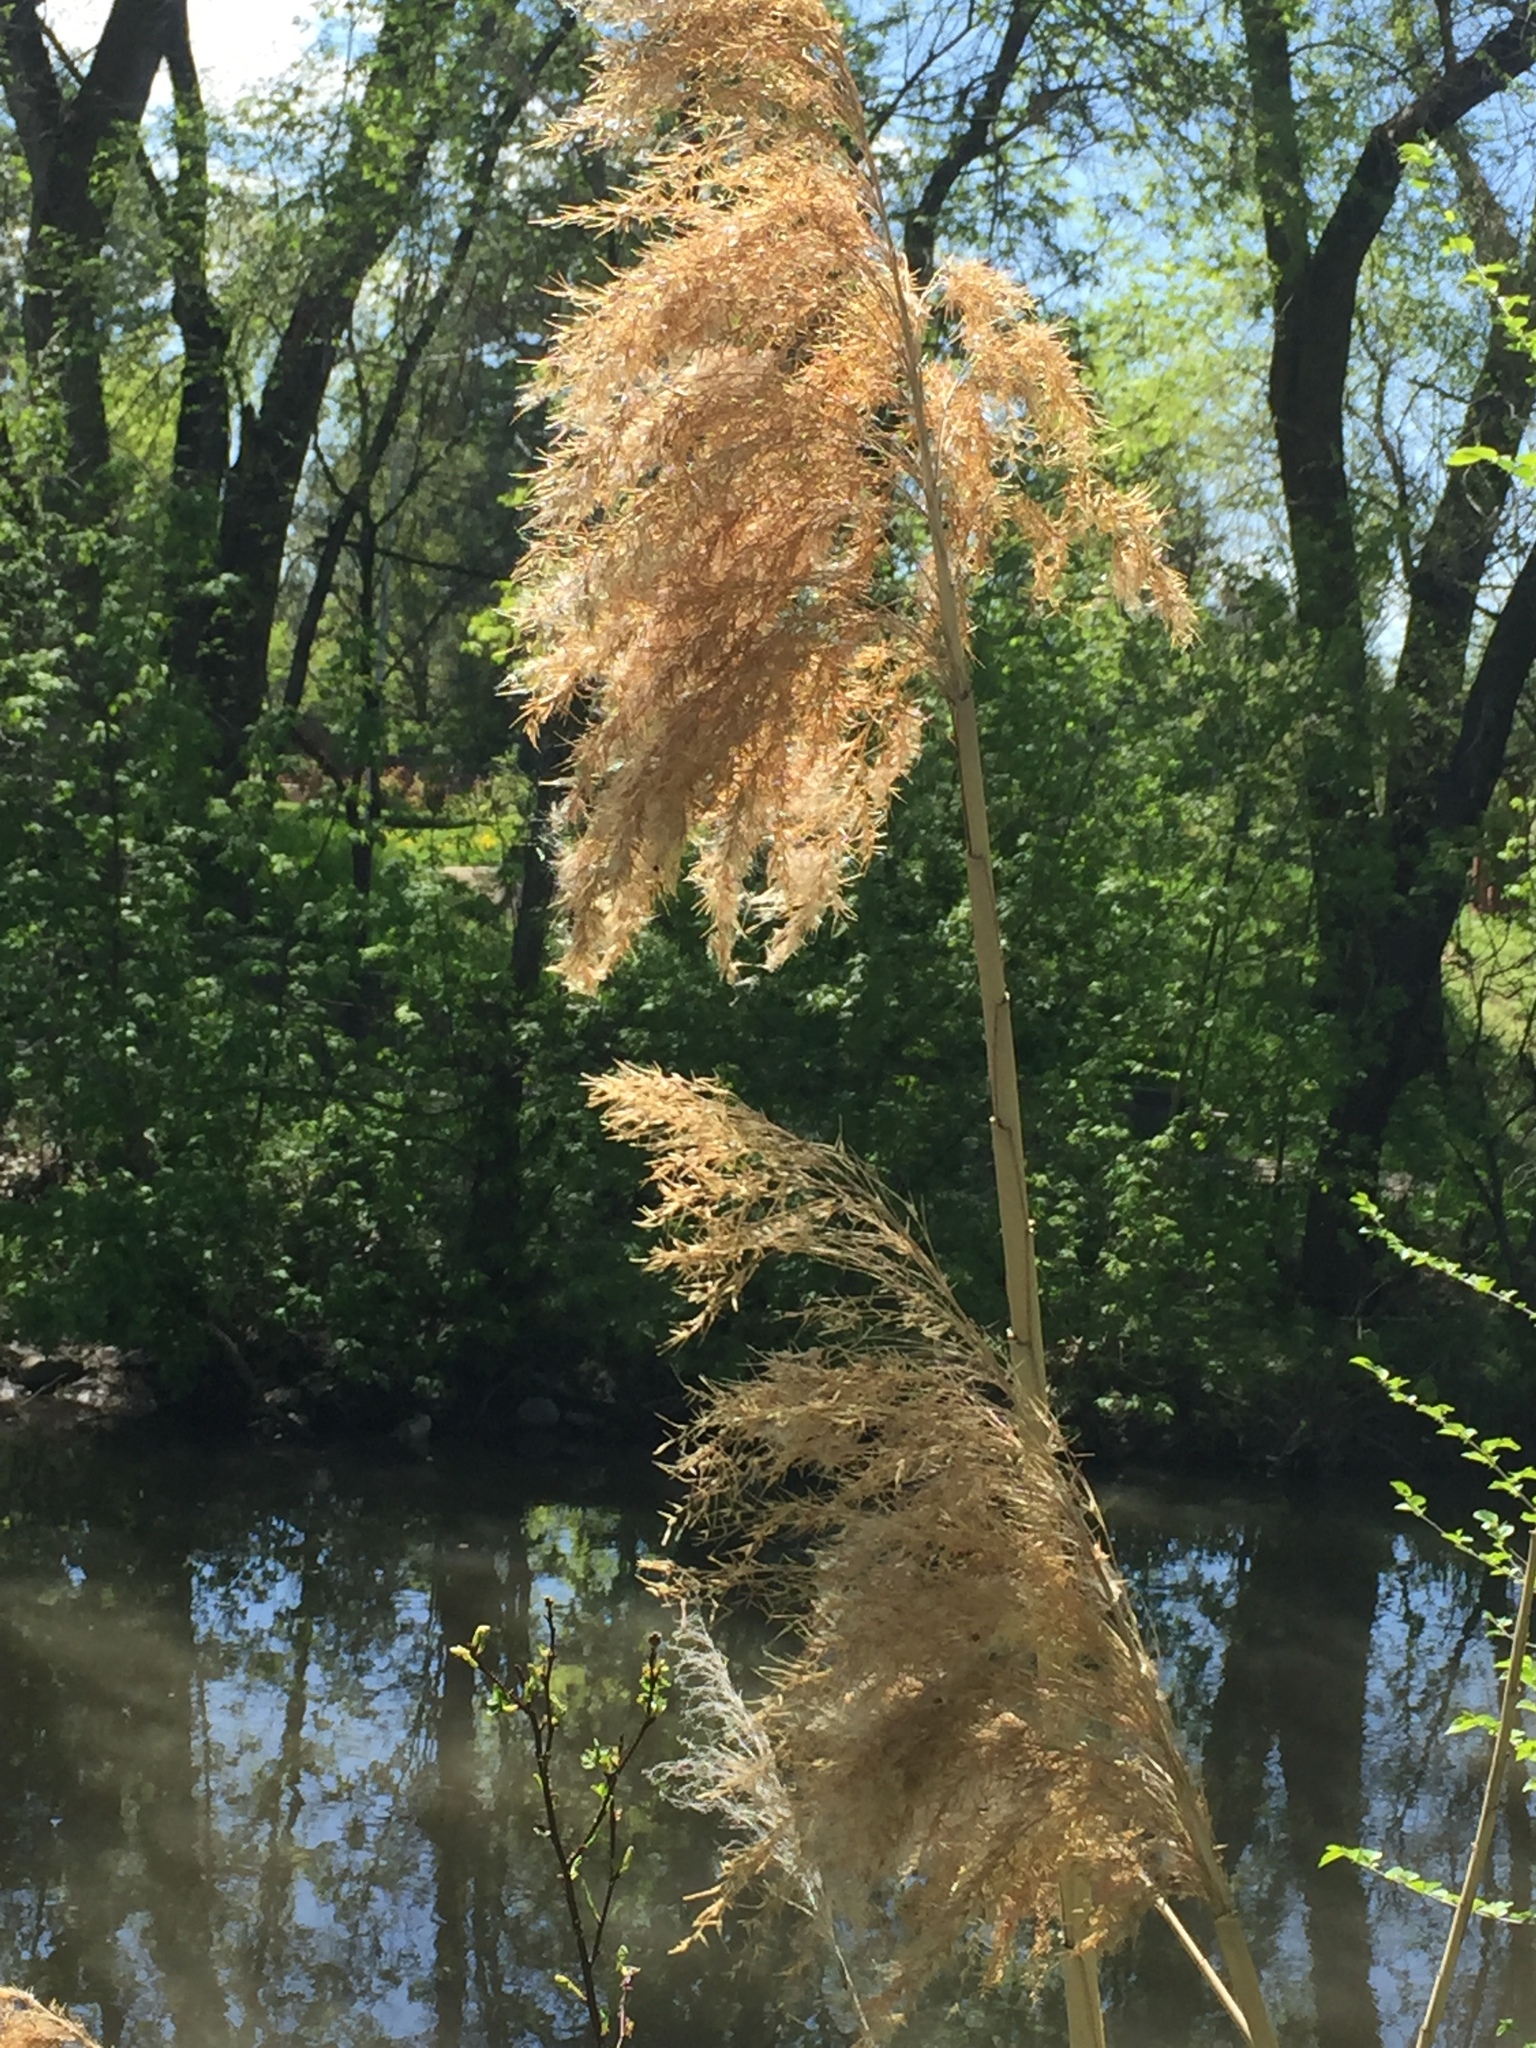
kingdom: Plantae
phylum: Tracheophyta
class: Liliopsida
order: Poales
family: Poaceae
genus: Phragmites
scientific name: Phragmites australis
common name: Common reed
